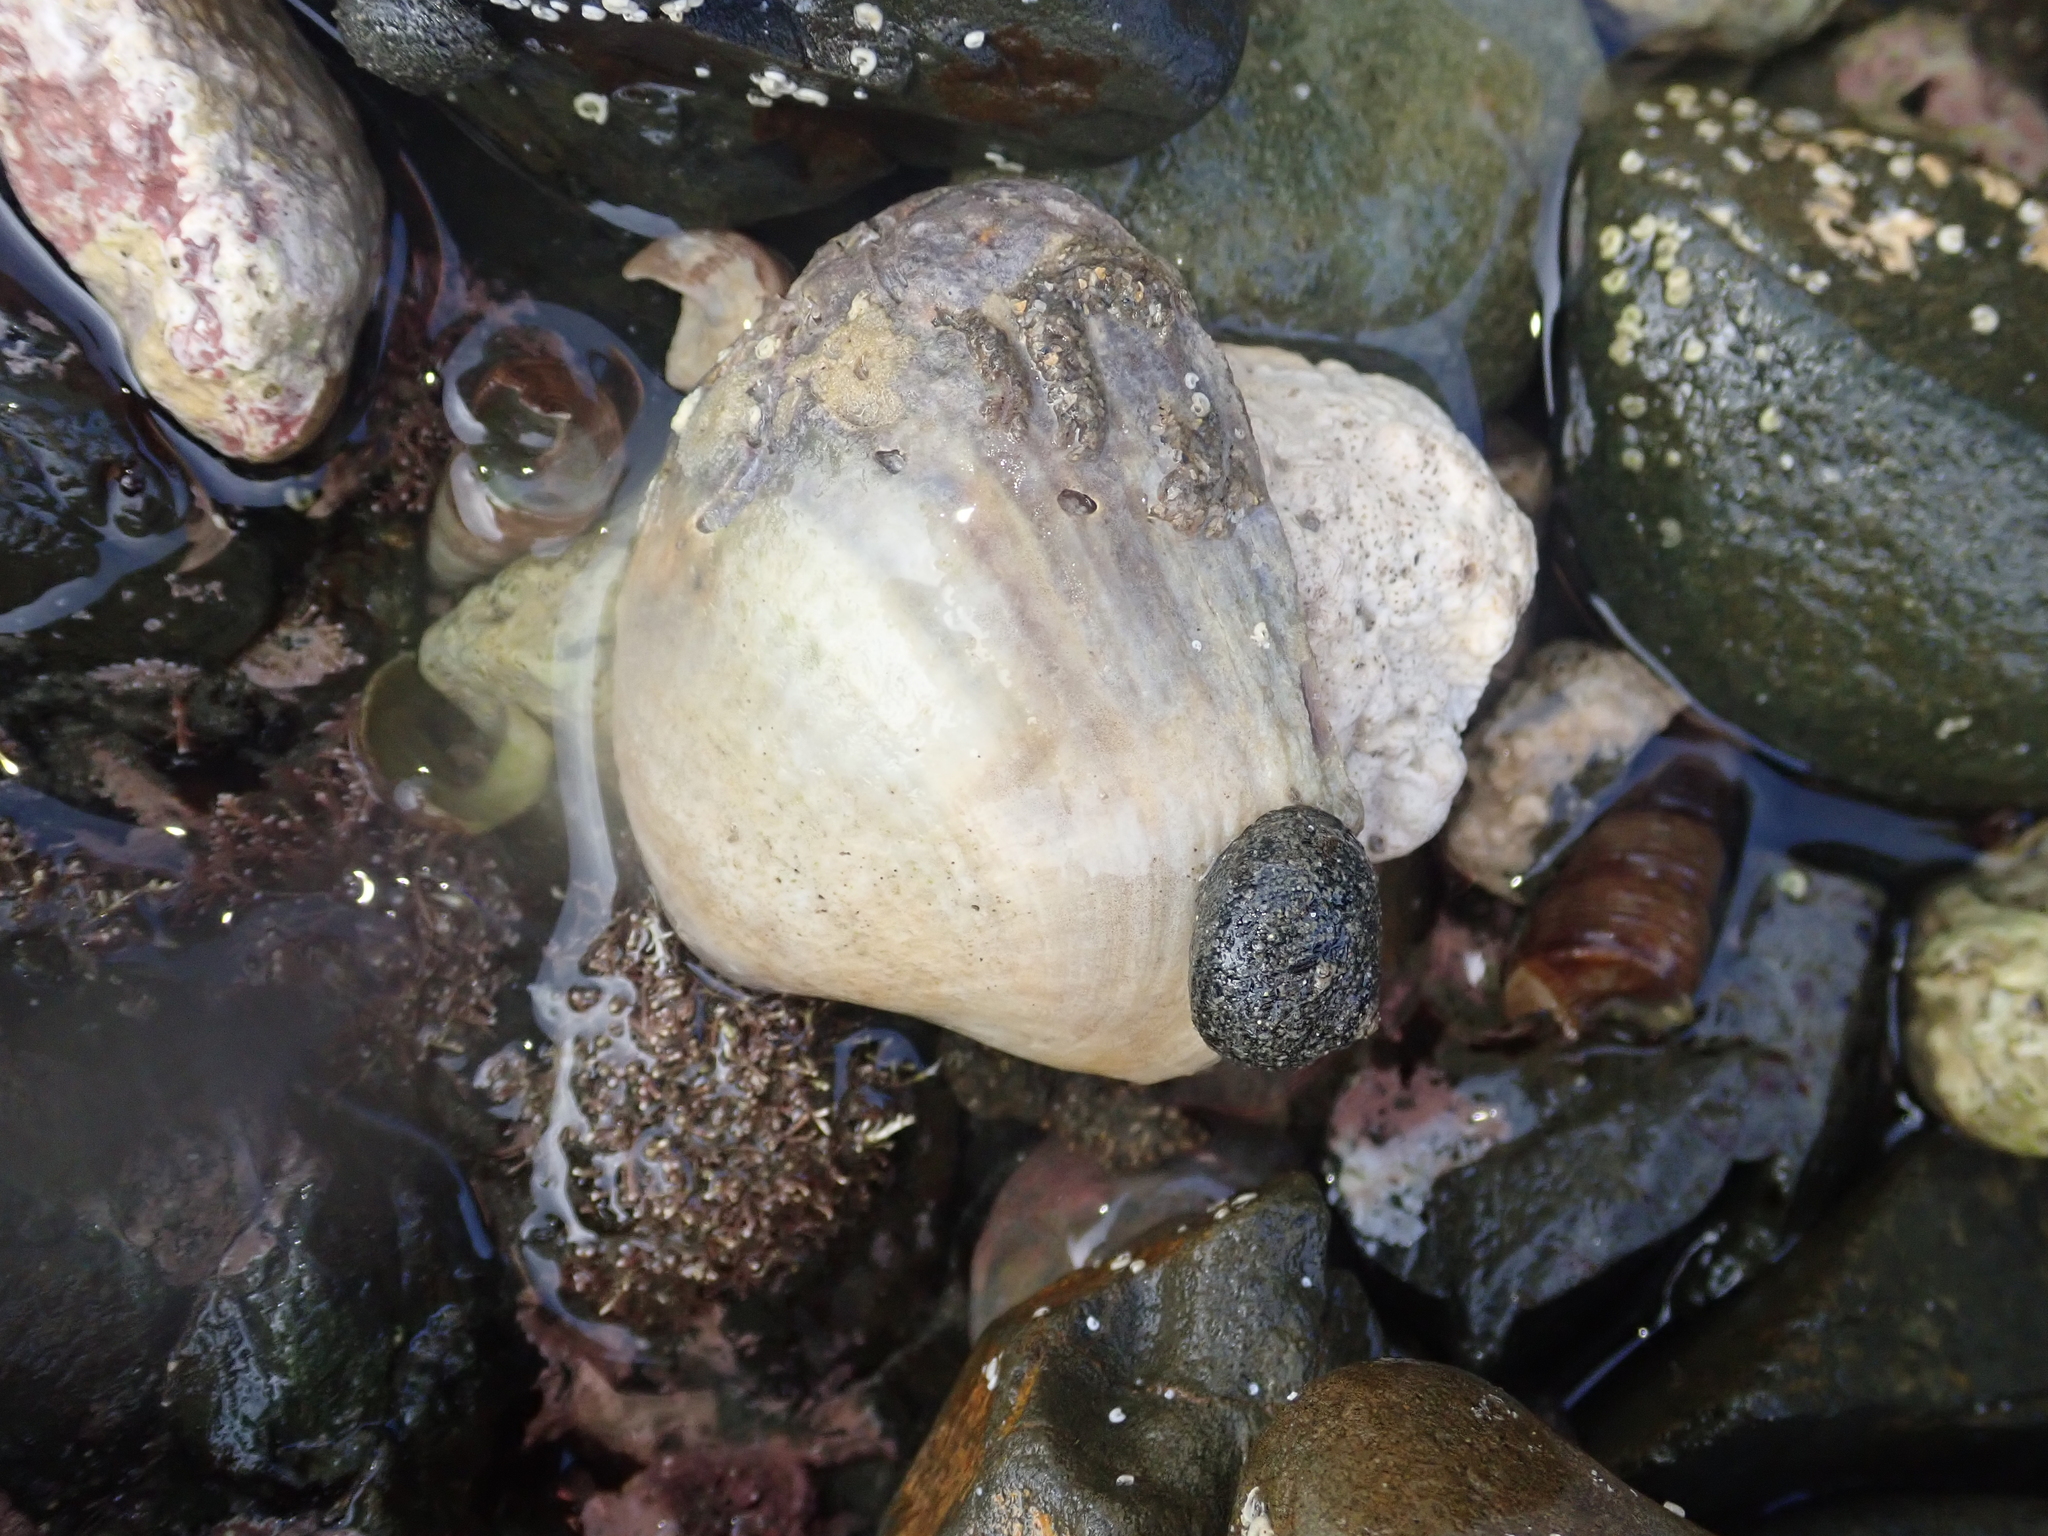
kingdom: Animalia
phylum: Mollusca
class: Bivalvia
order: Venerida
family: Veneridae
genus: Austrovenus
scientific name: Austrovenus stutchburyi
